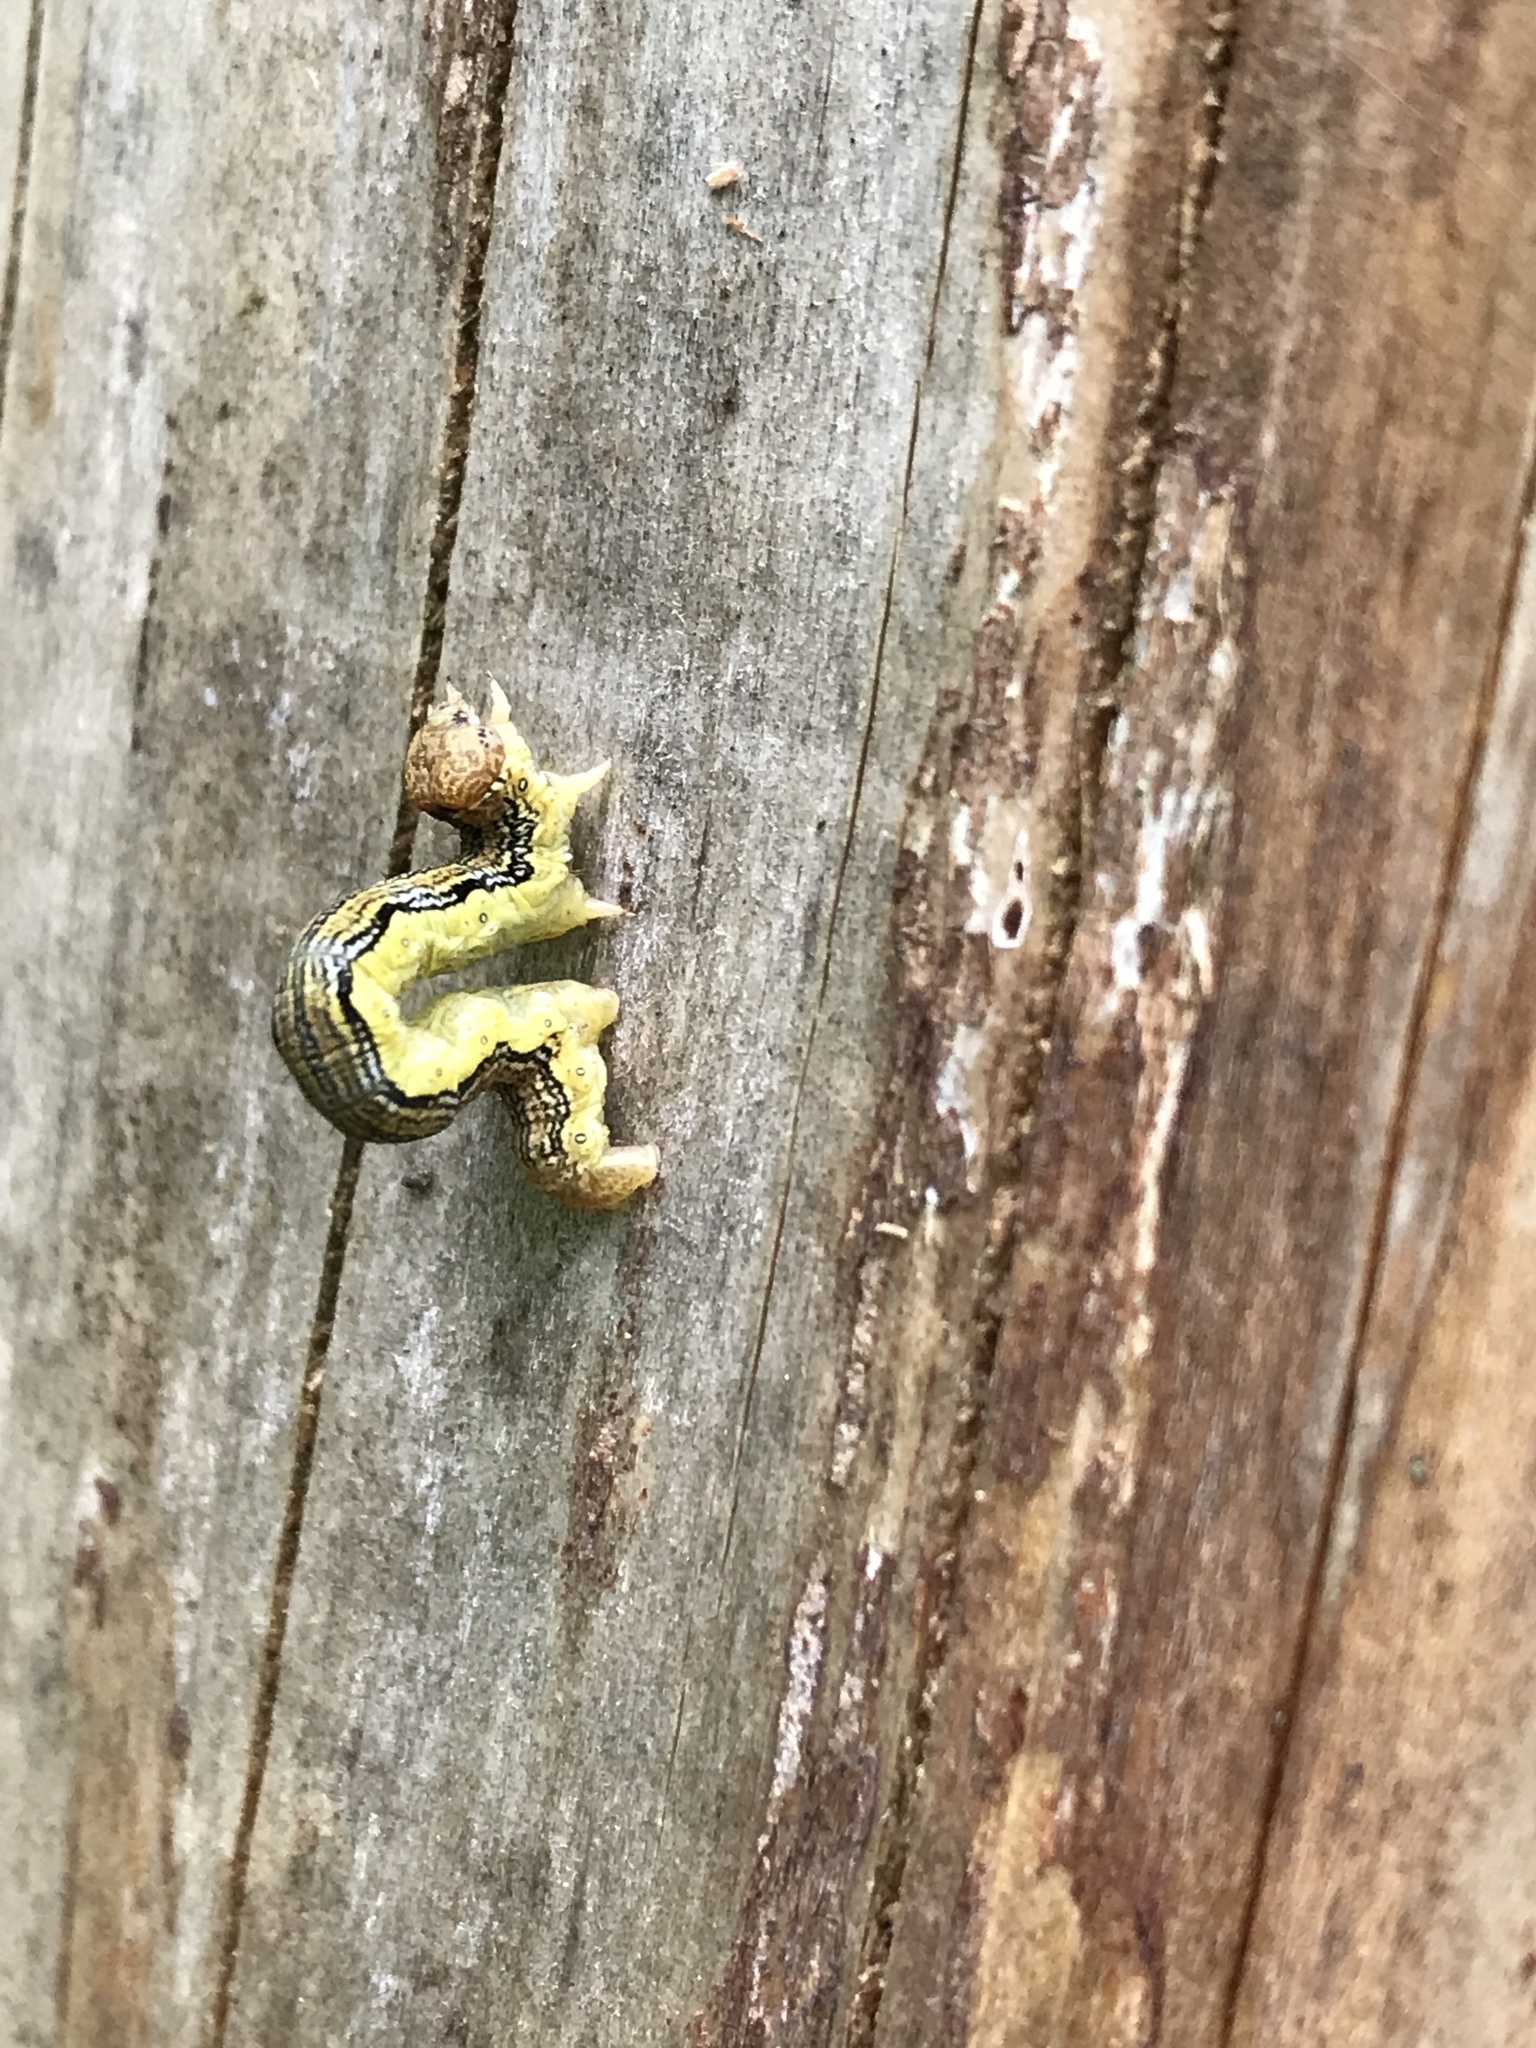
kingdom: Animalia
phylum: Arthropoda
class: Insecta
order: Lepidoptera
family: Geometridae
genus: Erannis
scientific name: Erannis defoliaria
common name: Mottled umber
